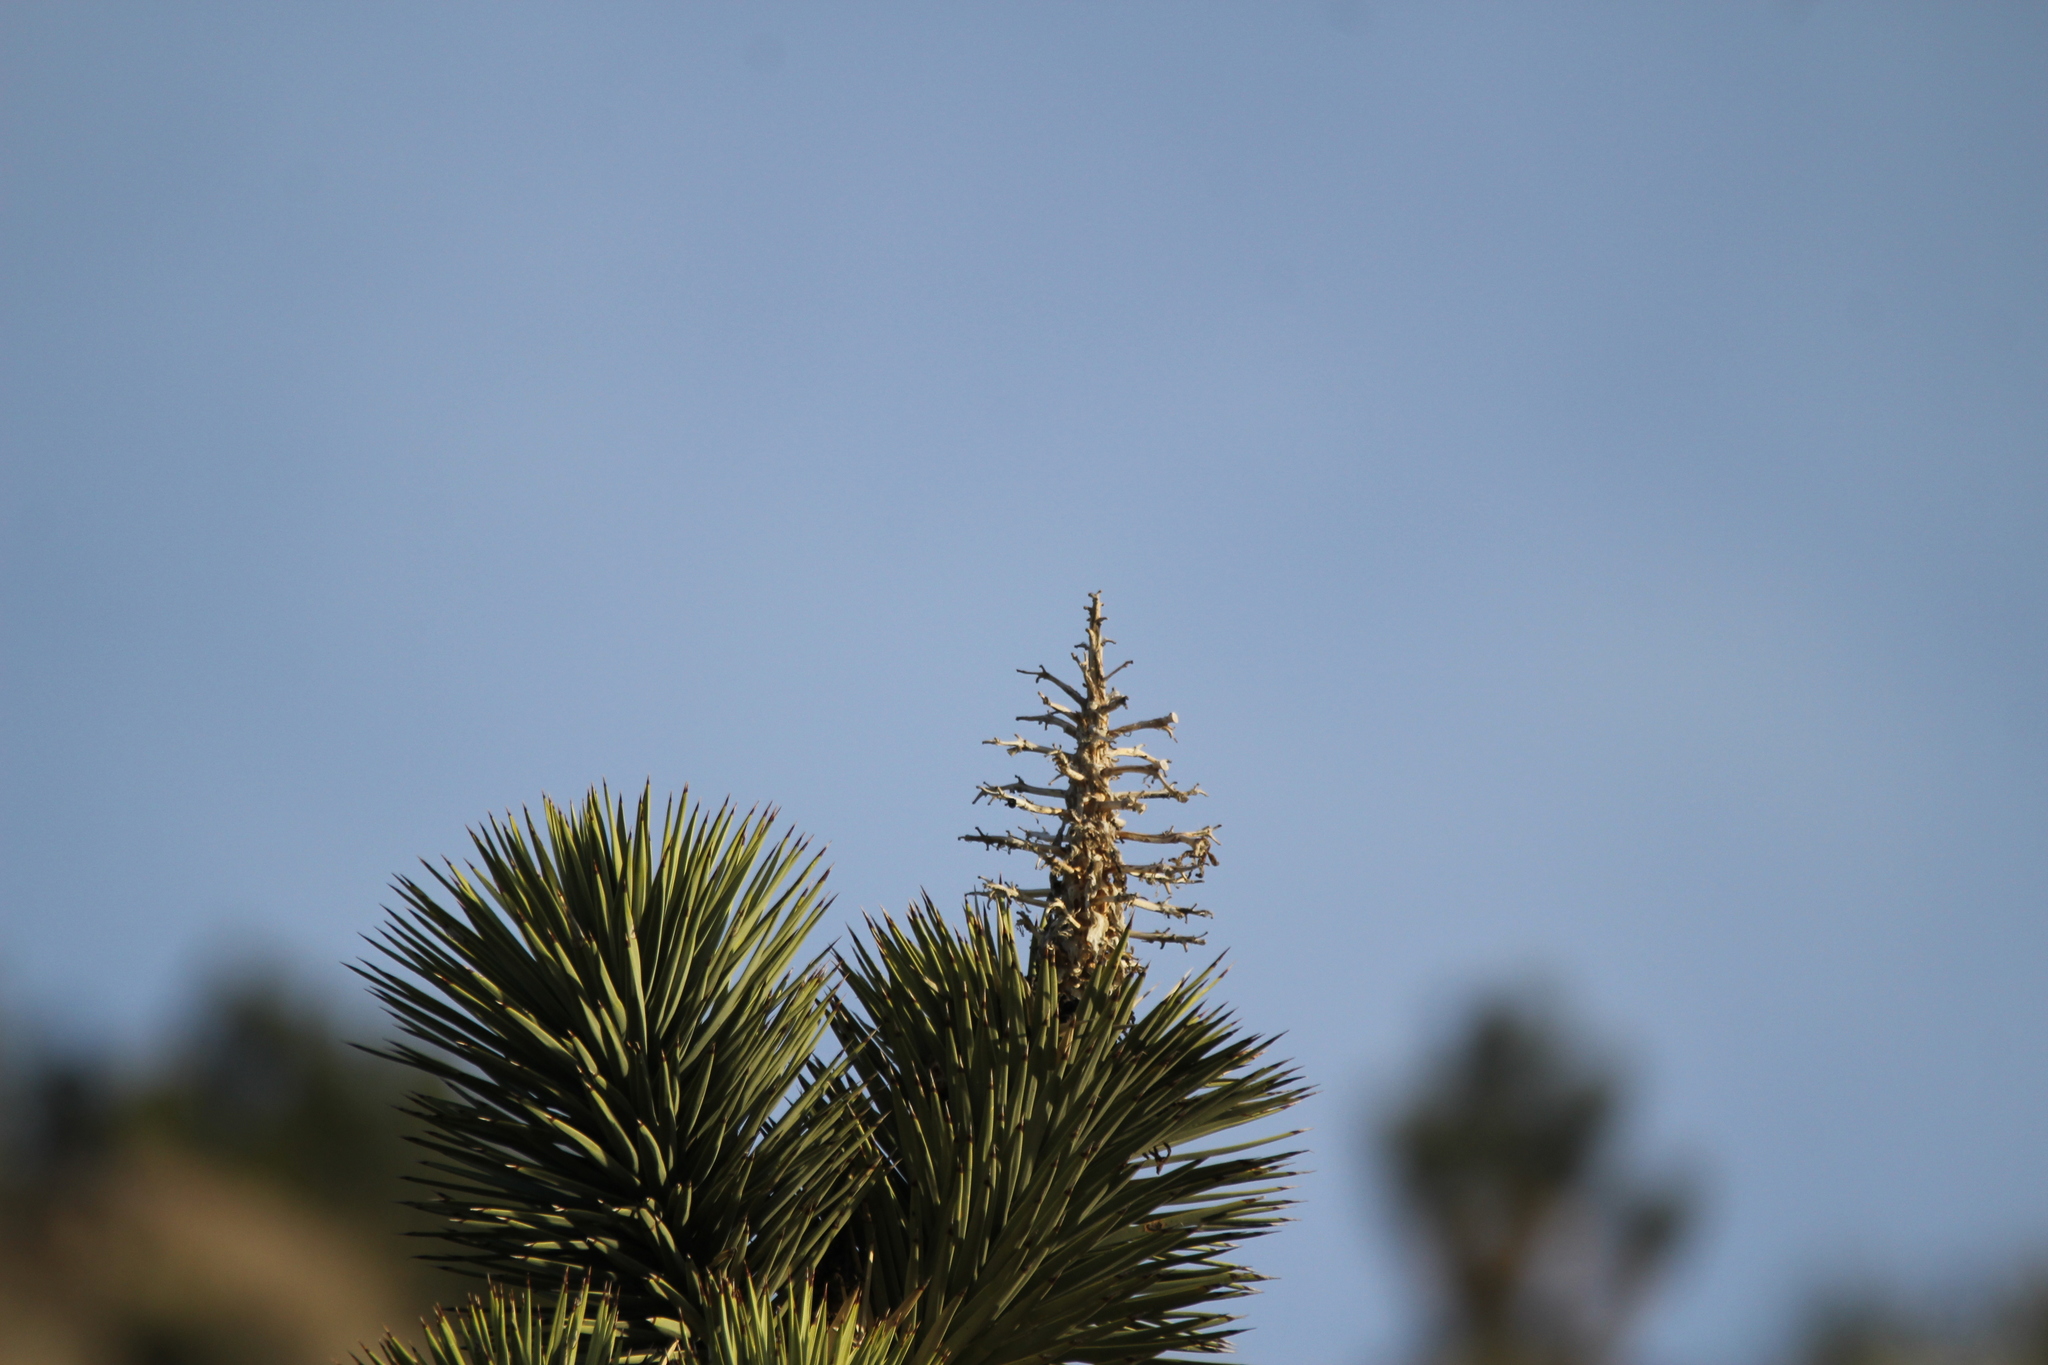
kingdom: Plantae
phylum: Tracheophyta
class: Liliopsida
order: Asparagales
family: Asparagaceae
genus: Yucca
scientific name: Yucca brevifolia
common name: Joshua tree
